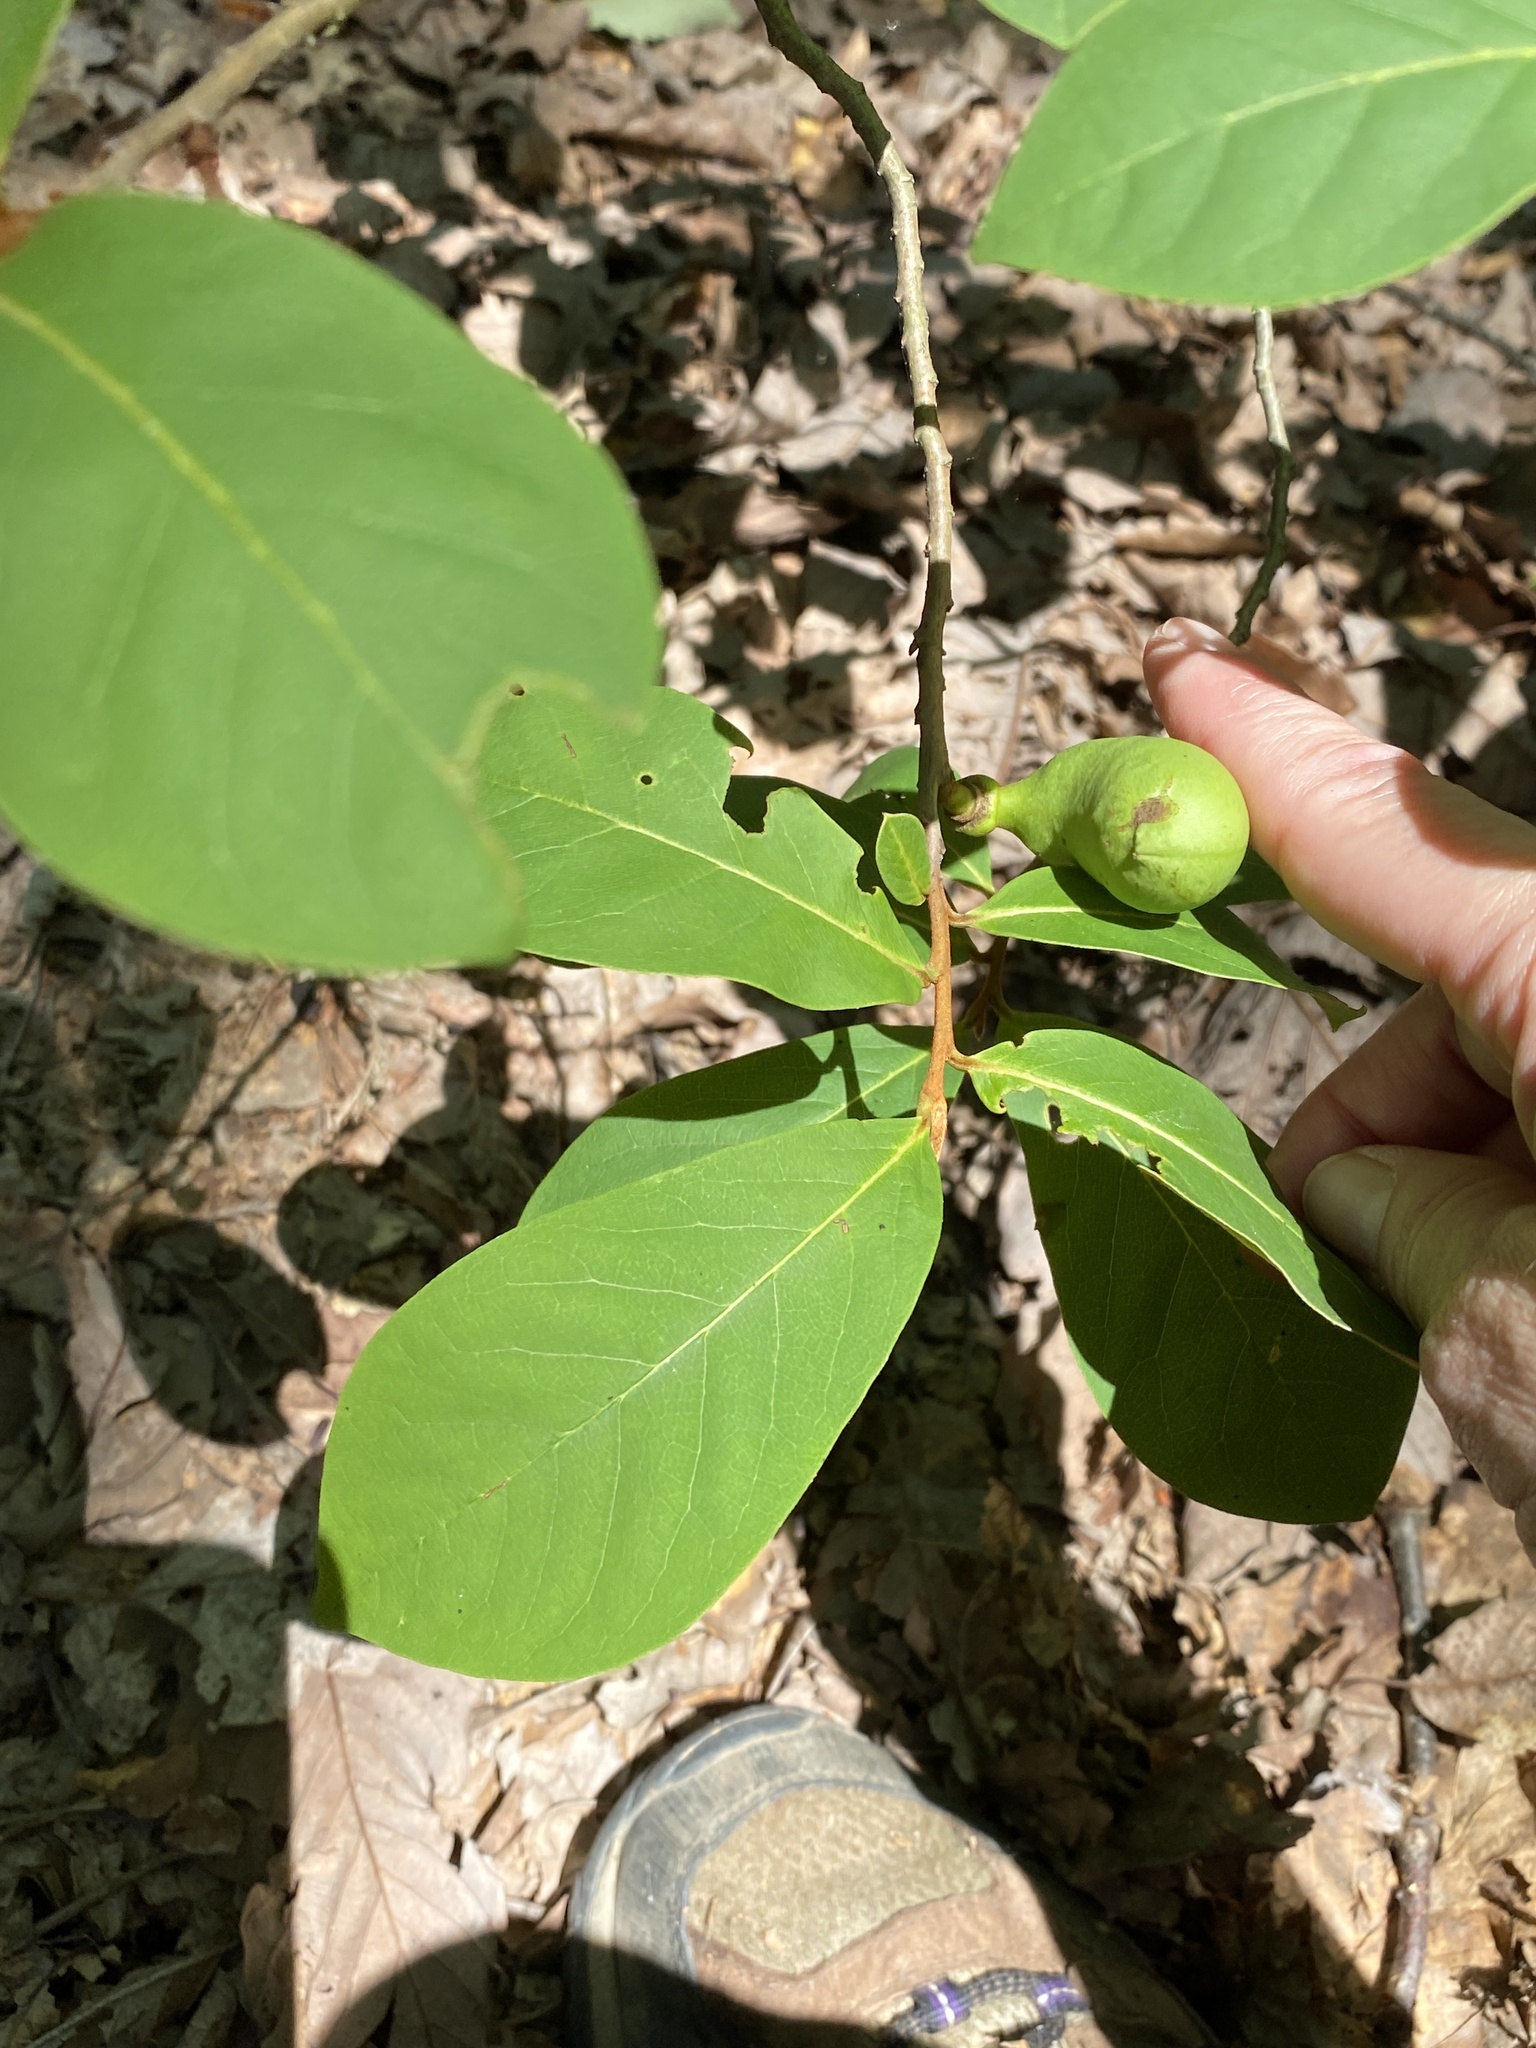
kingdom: Plantae
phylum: Tracheophyta
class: Magnoliopsida
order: Magnoliales
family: Annonaceae
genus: Asimina
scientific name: Asimina parviflora
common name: Dwarf pawpaw
